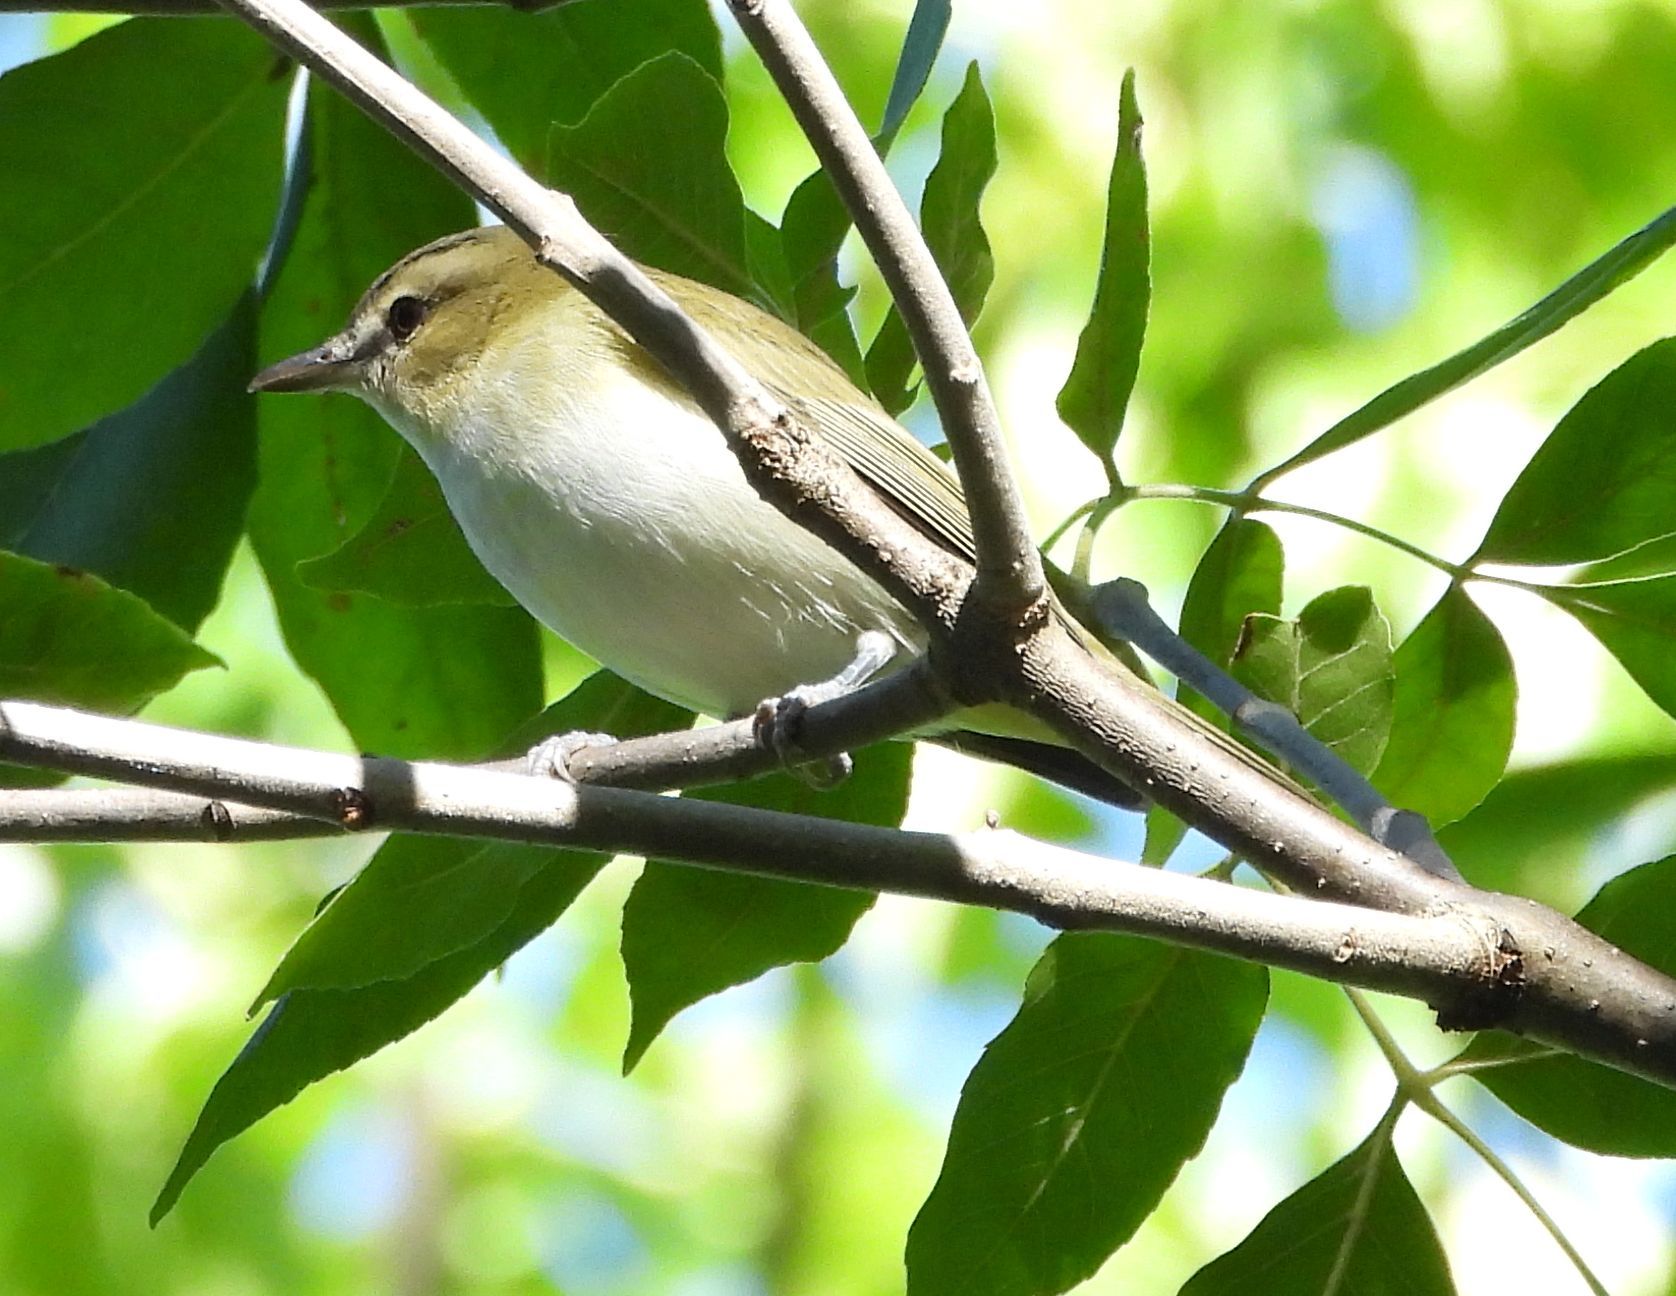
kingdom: Animalia
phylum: Chordata
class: Aves
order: Passeriformes
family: Vireonidae
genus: Vireo
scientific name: Vireo olivaceus
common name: Red-eyed vireo
